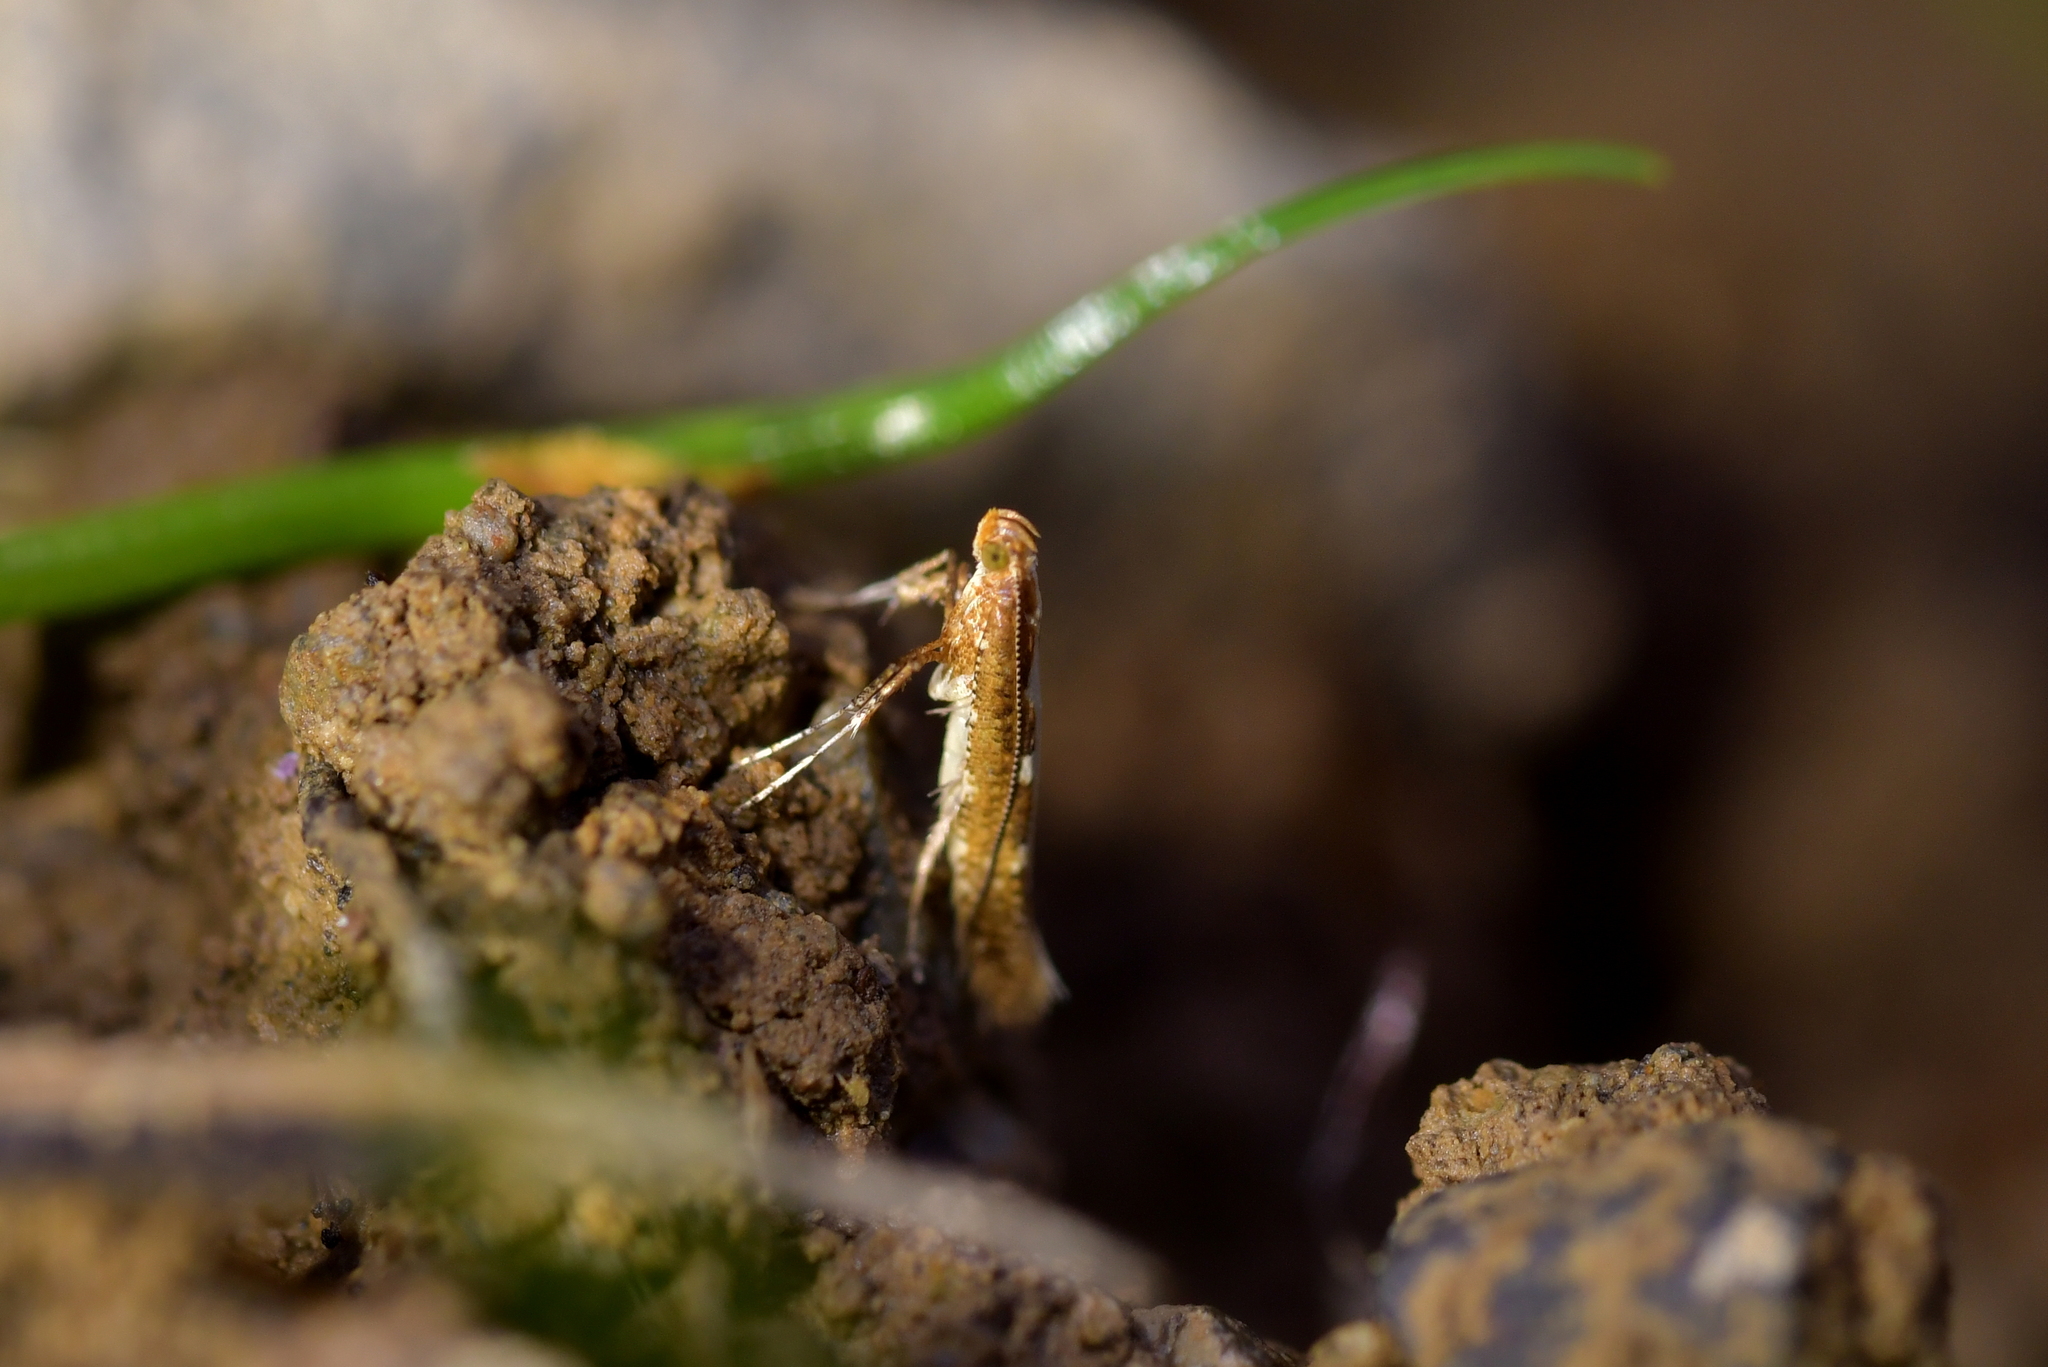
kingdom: Animalia
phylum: Arthropoda
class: Insecta
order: Lepidoptera
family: Gracillariidae
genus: Caloptilia
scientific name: Caloptilia selenitis
